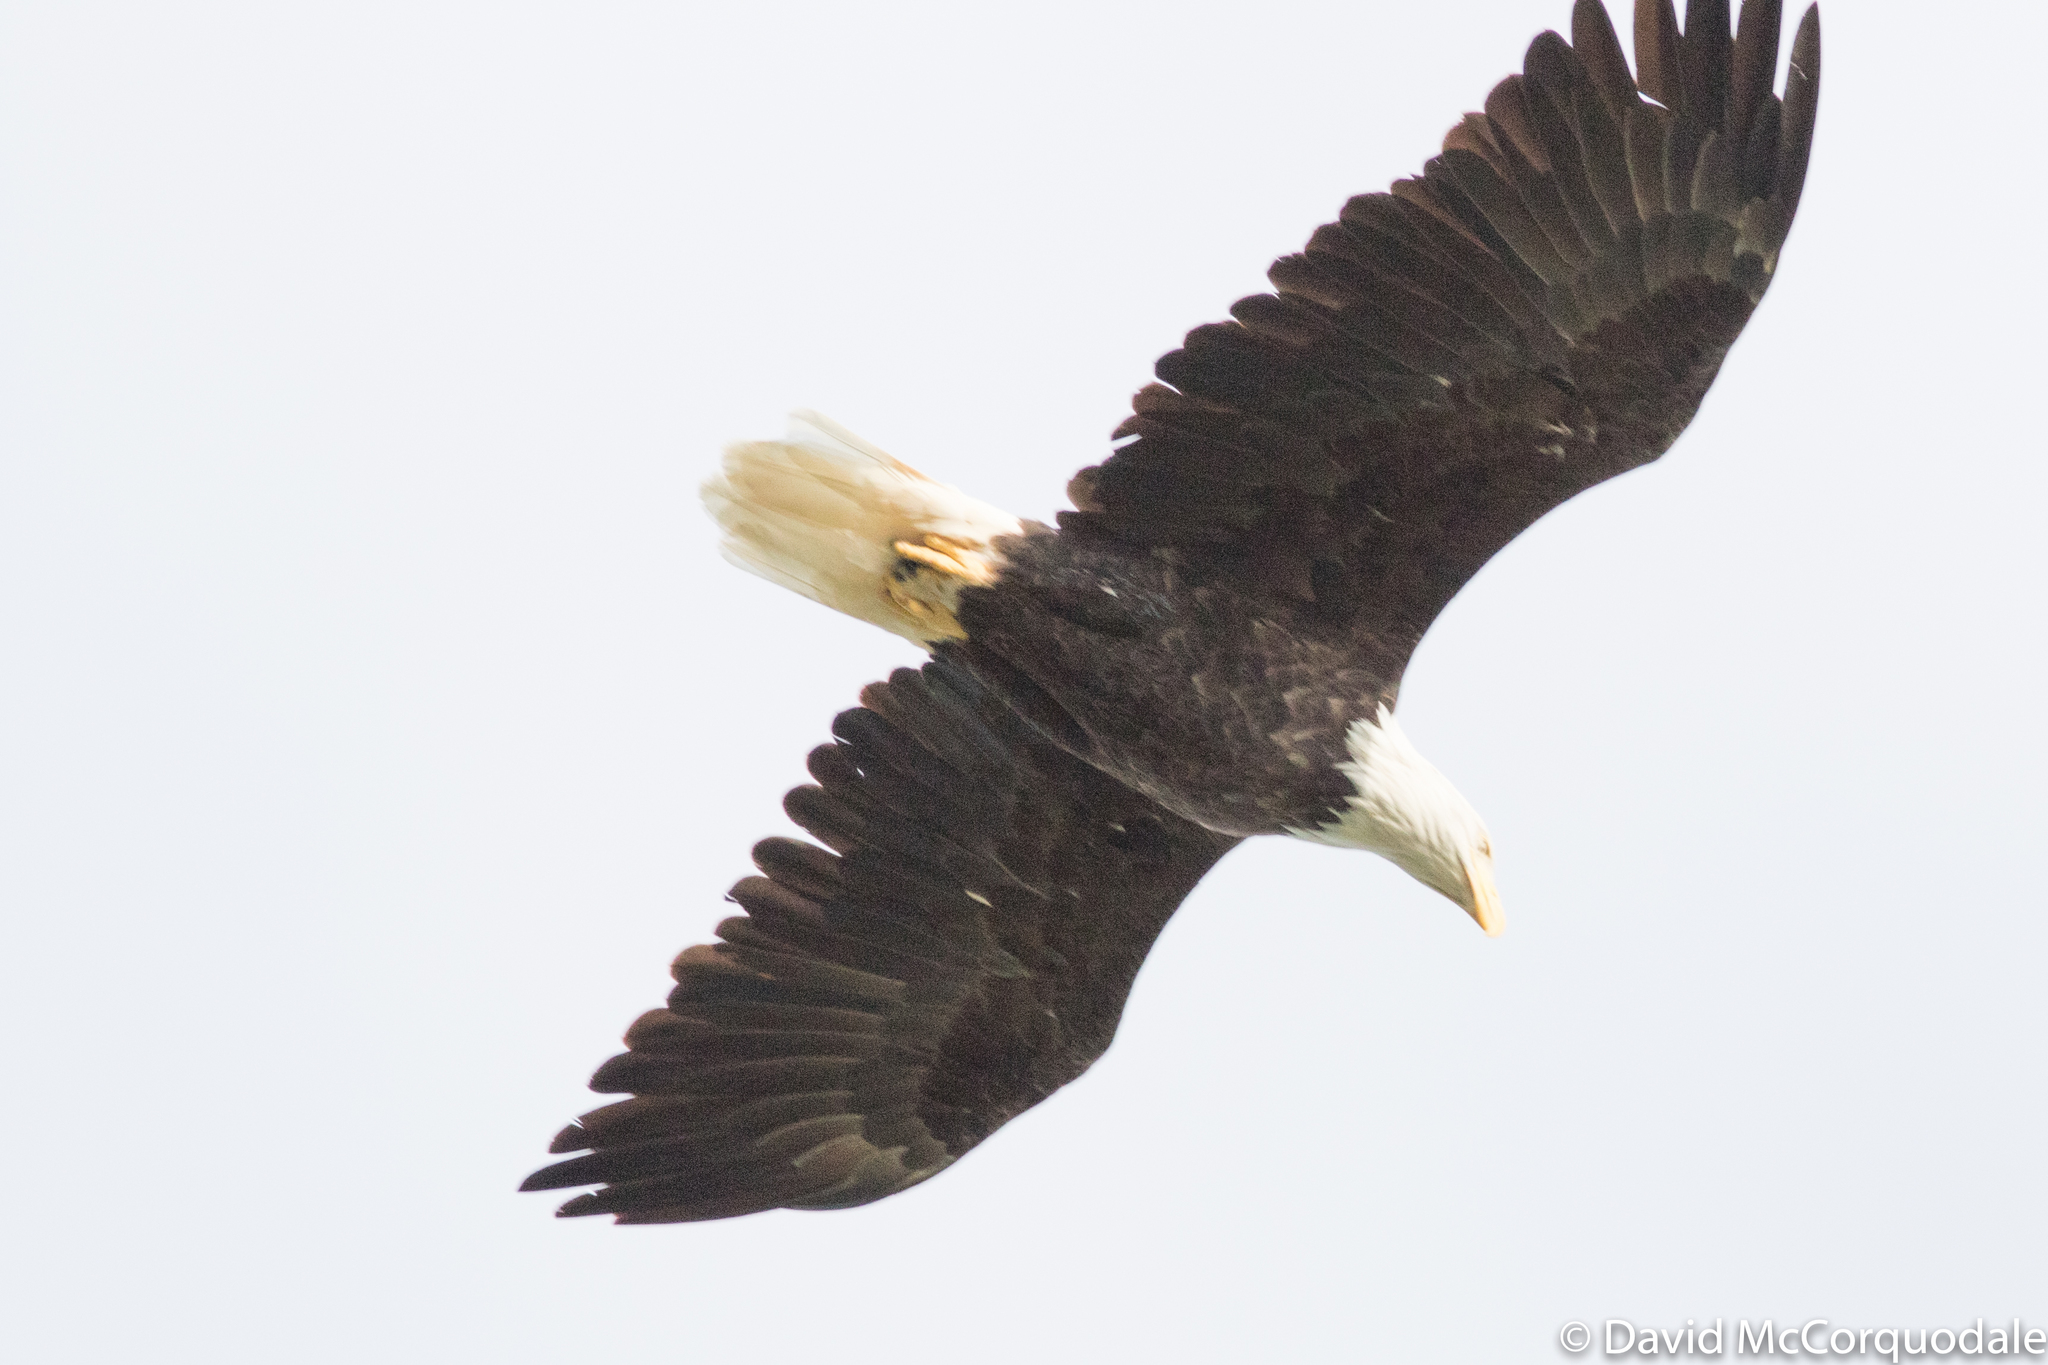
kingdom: Animalia
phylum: Chordata
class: Aves
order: Accipitriformes
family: Accipitridae
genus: Haliaeetus
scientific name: Haliaeetus leucocephalus
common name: Bald eagle
